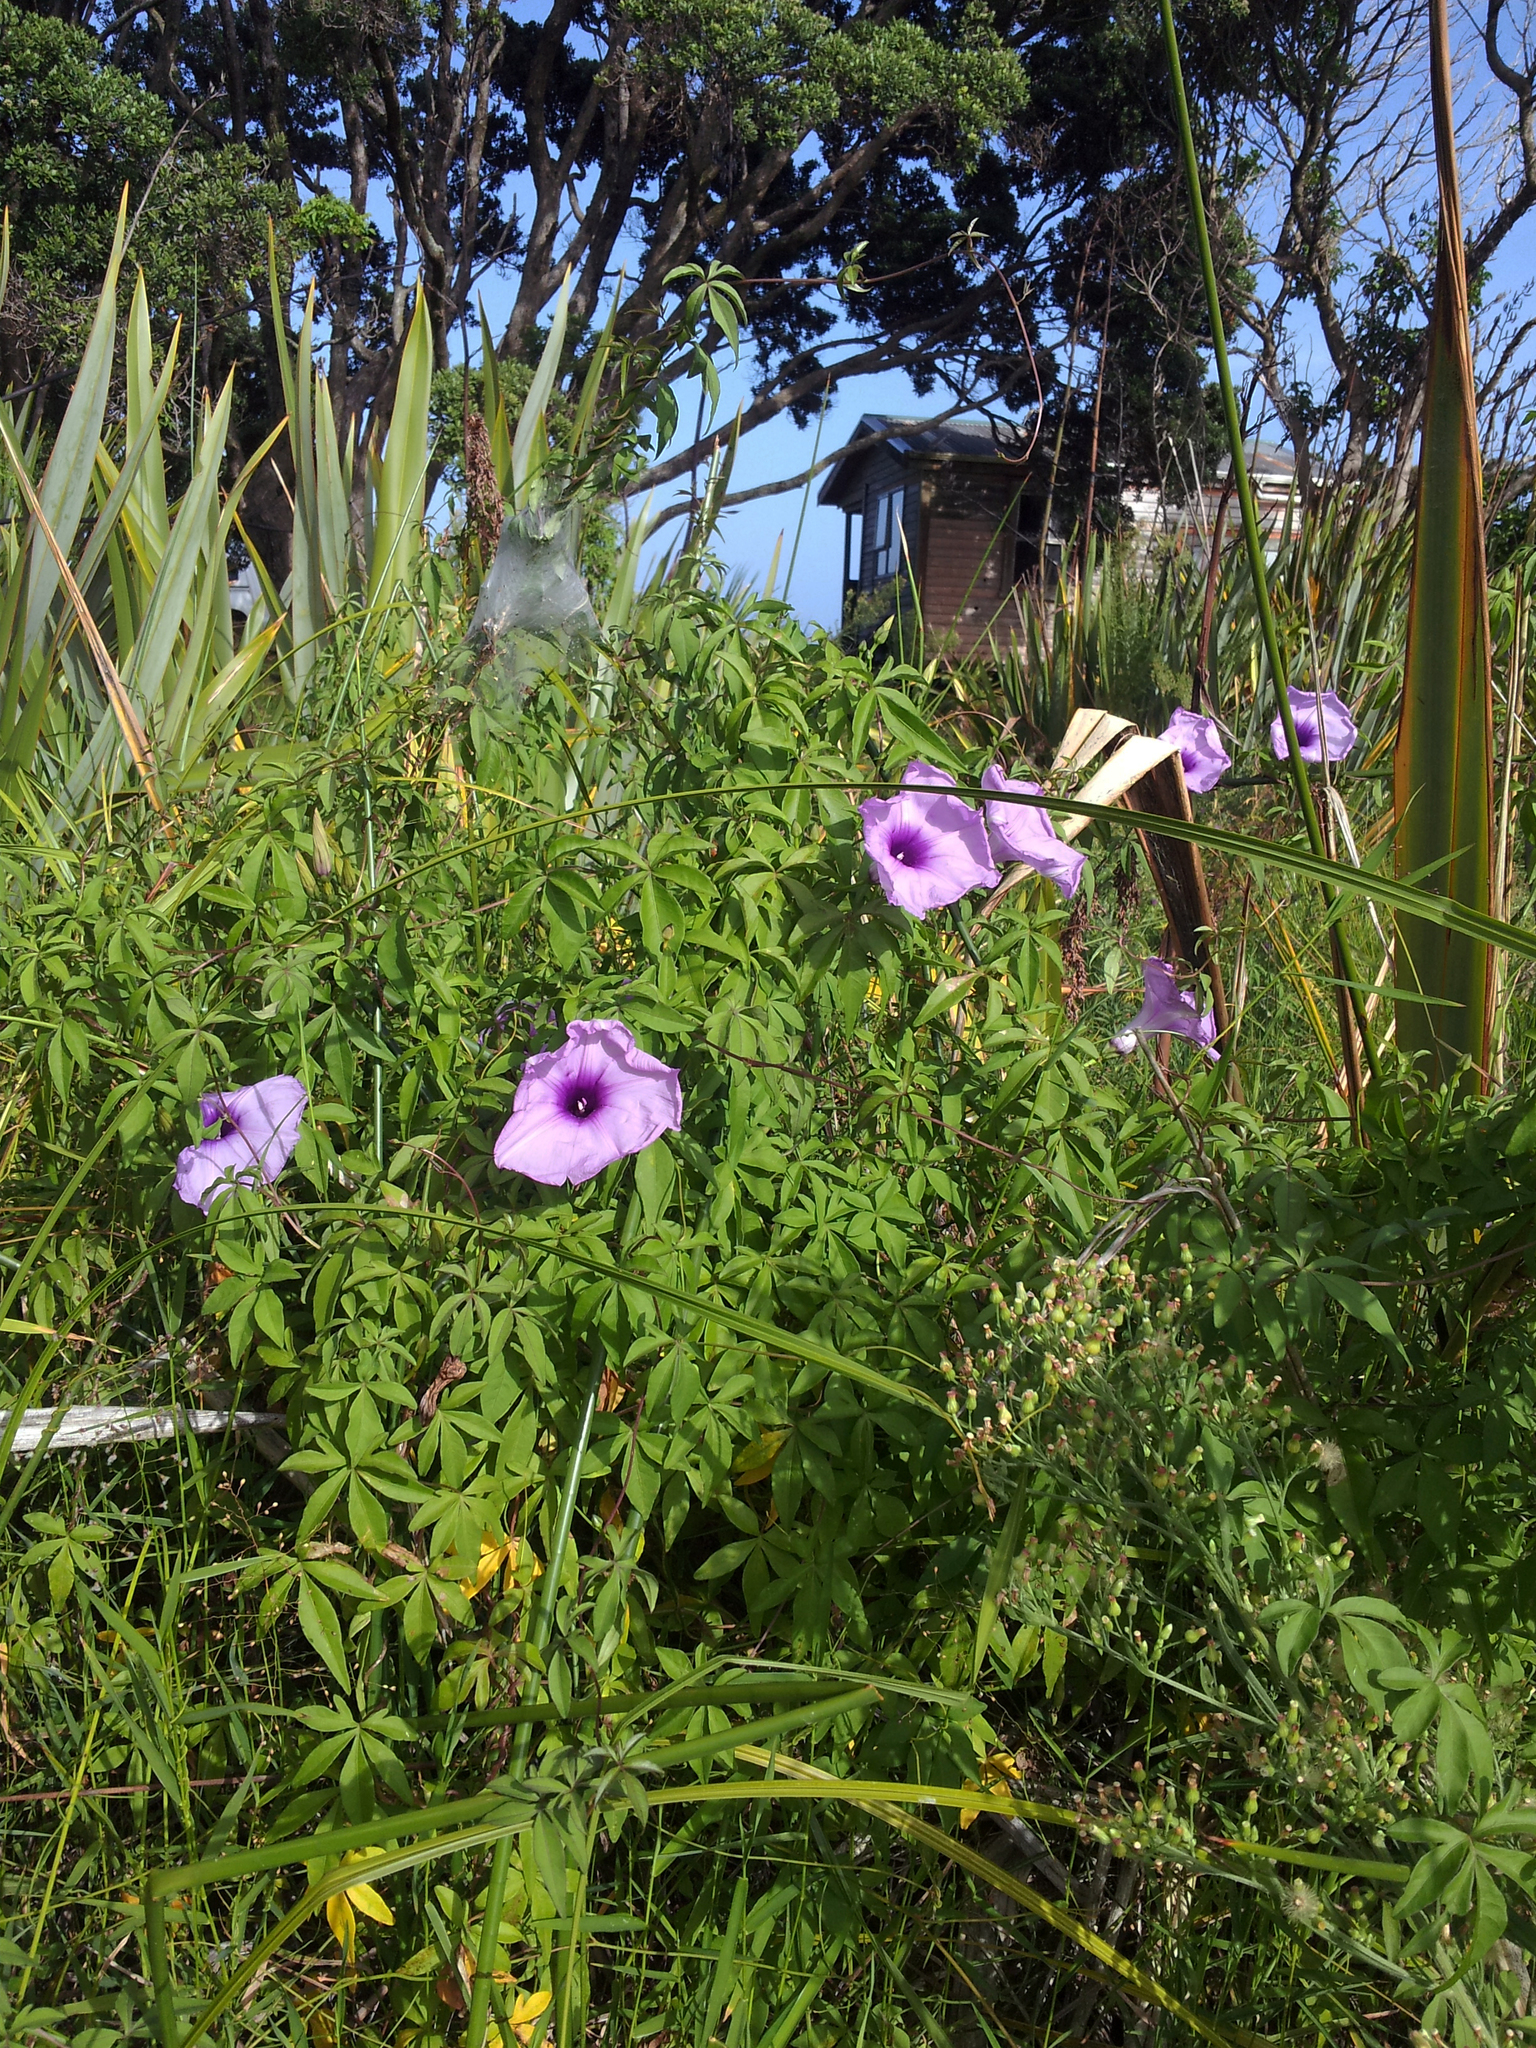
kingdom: Plantae
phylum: Tracheophyta
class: Magnoliopsida
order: Solanales
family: Convolvulaceae
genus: Ipomoea
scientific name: Ipomoea cairica
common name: Mile a minute vine
